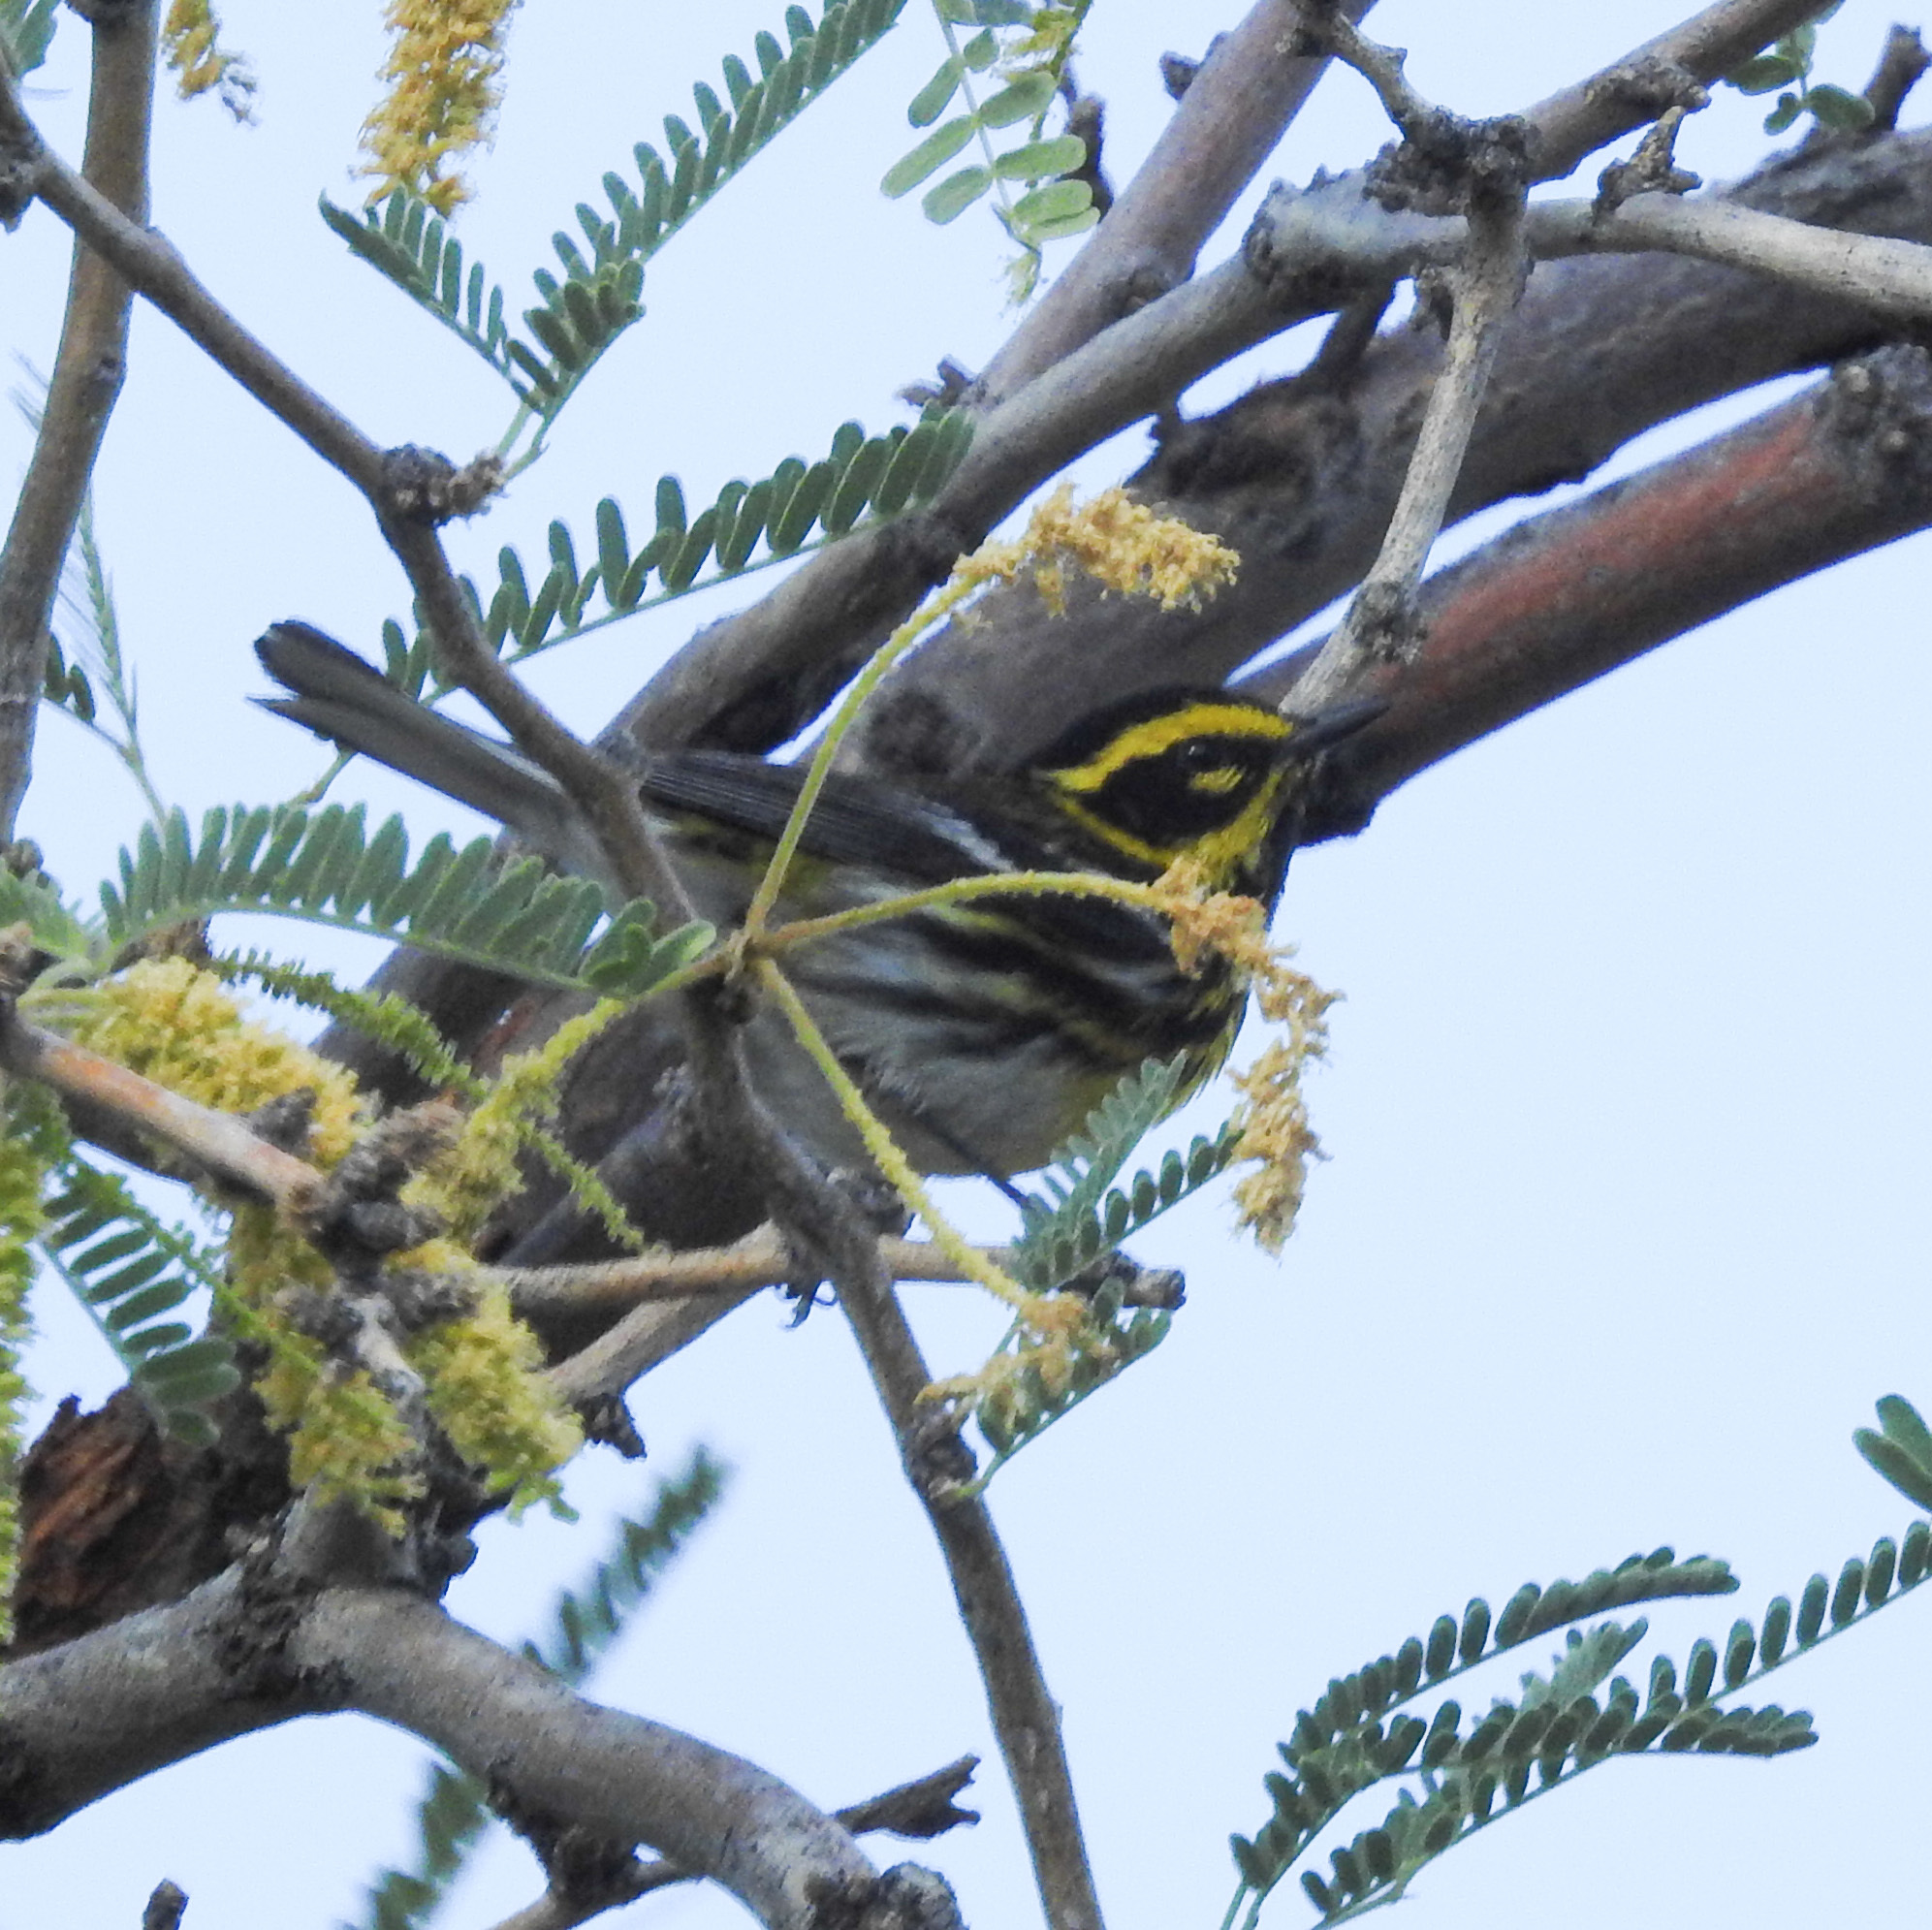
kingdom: Animalia
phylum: Chordata
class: Aves
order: Passeriformes
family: Parulidae
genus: Setophaga
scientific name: Setophaga townsendi
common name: Townsend's warbler
